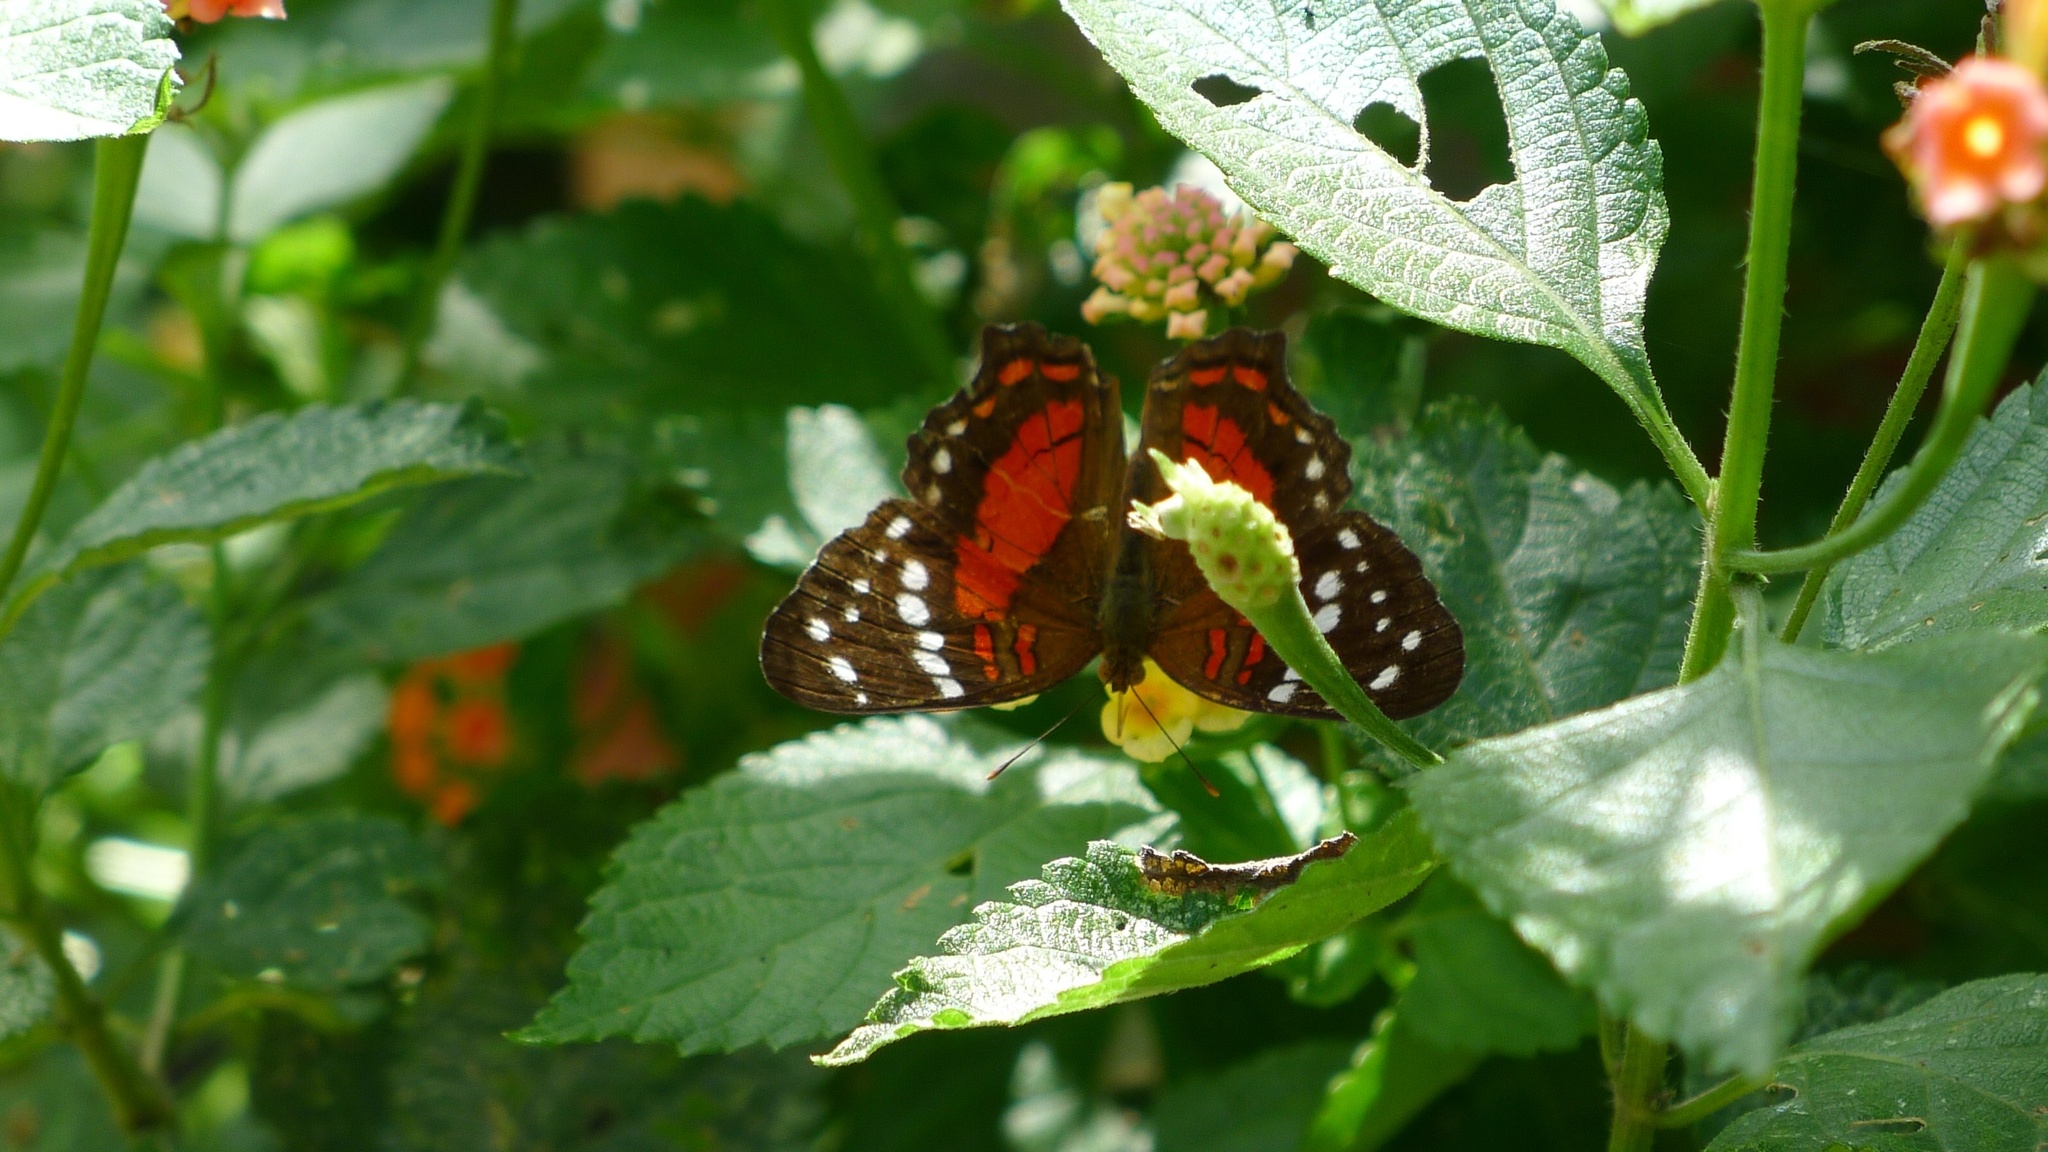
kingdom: Animalia
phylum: Arthropoda
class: Insecta
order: Lepidoptera
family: Nymphalidae
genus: Anartia
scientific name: Anartia amathea
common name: Red peacock
